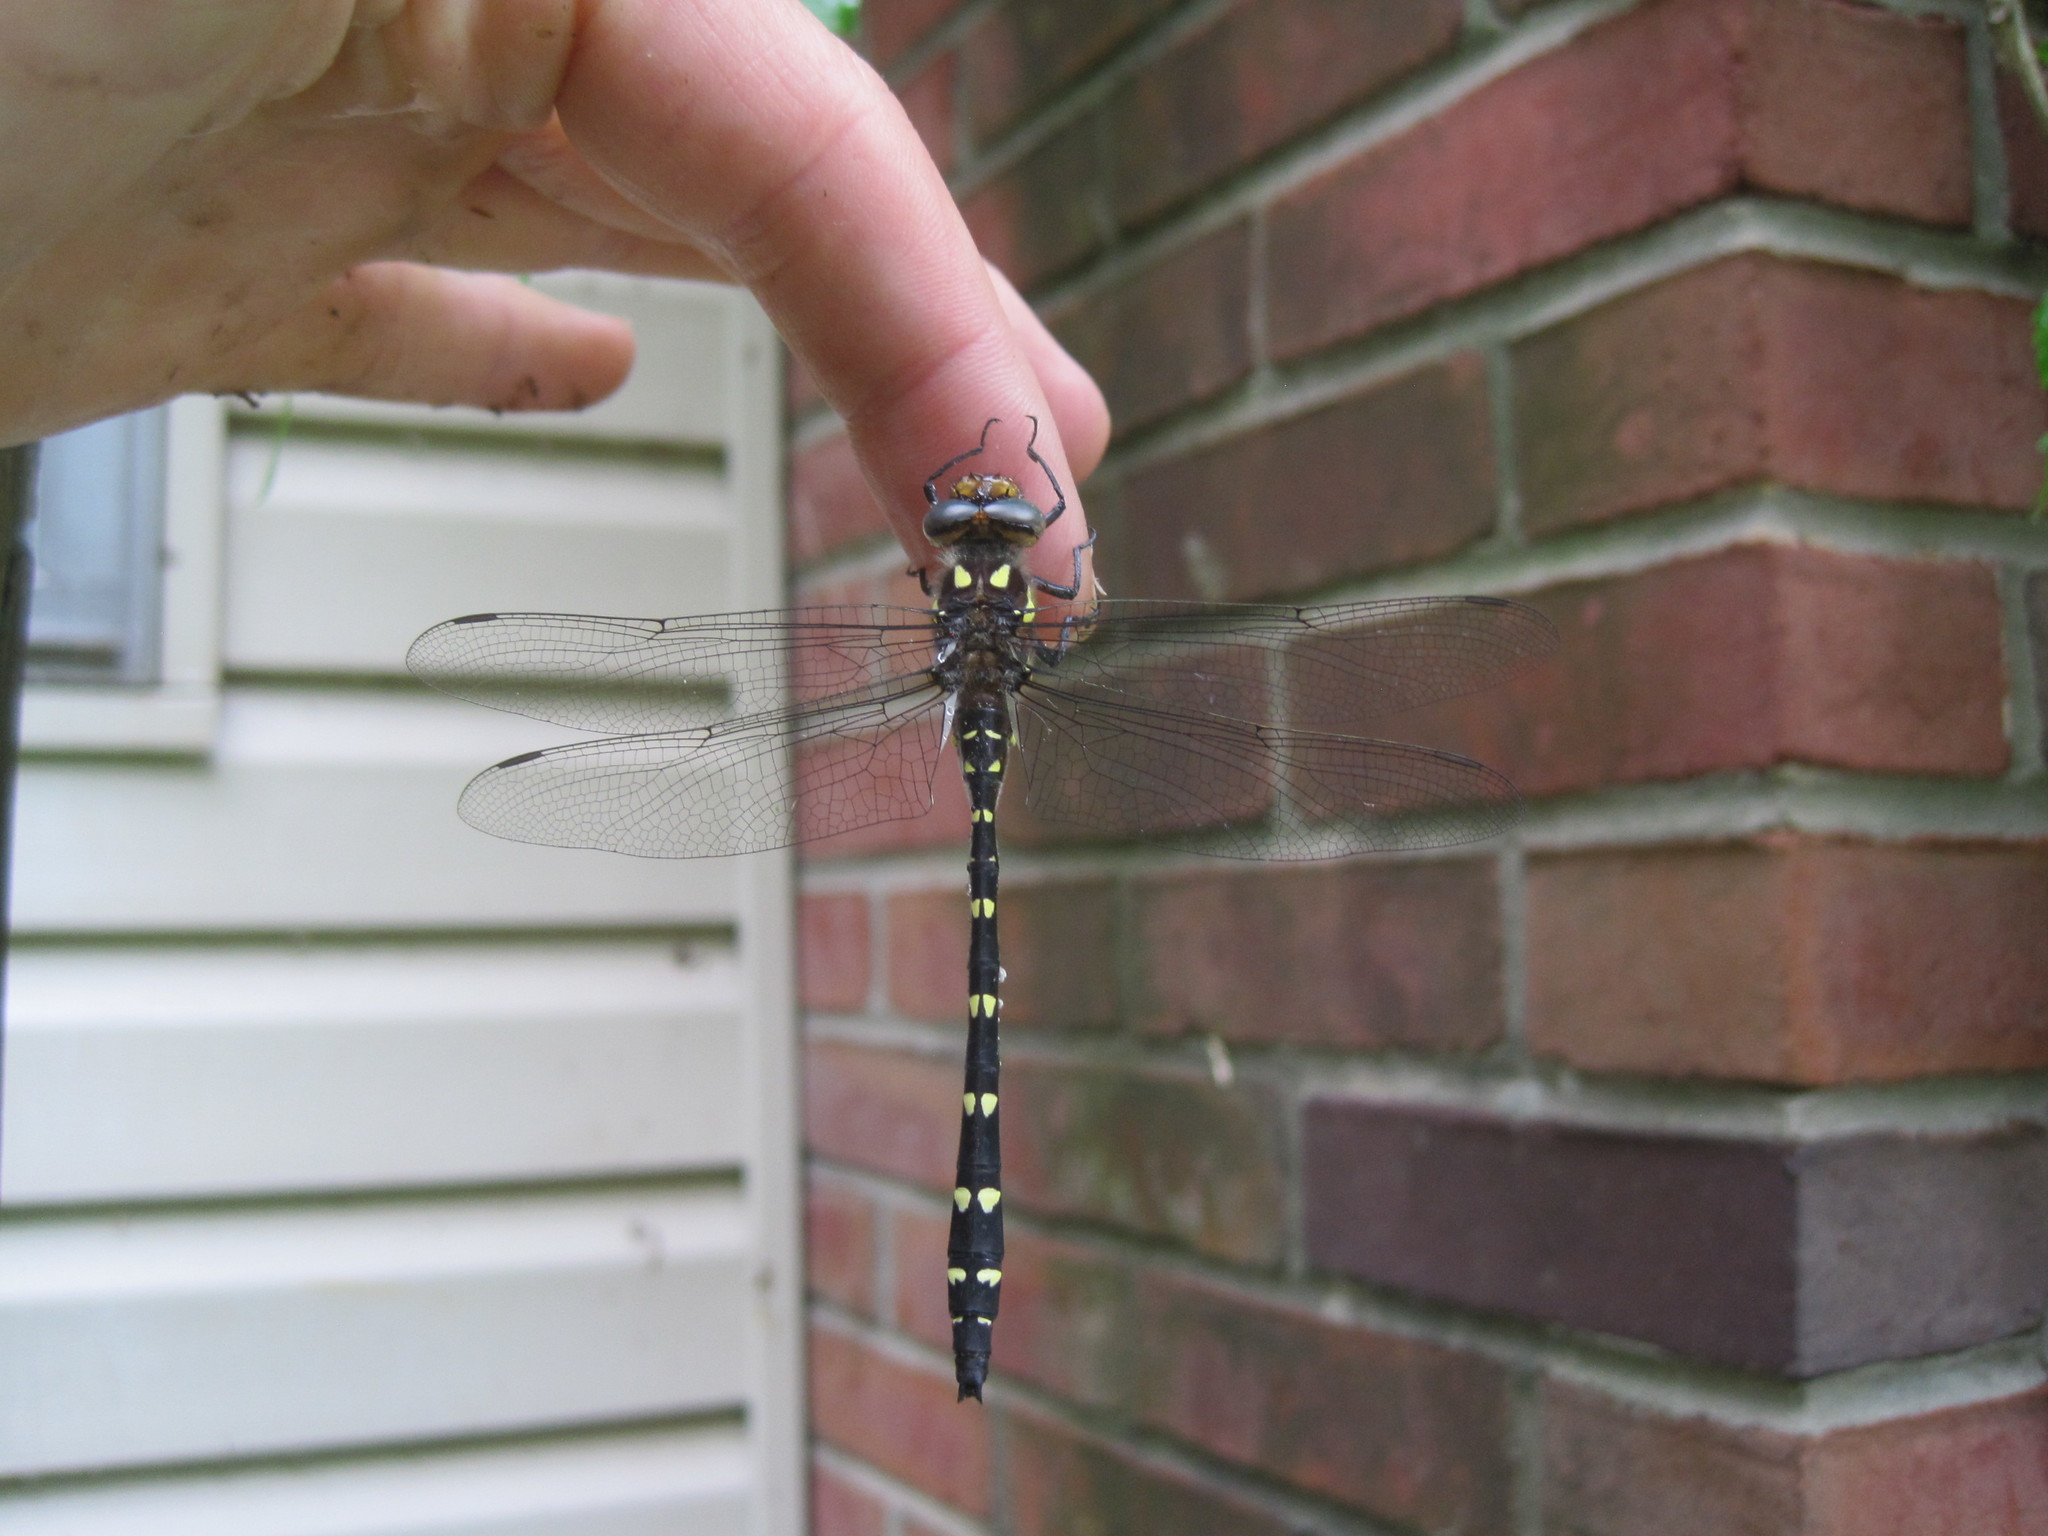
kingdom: Animalia
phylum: Arthropoda
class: Insecta
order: Odonata
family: Cordulegastridae
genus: Cordulegaster
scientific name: Cordulegaster maculata
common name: Twin-spotted spiketail
